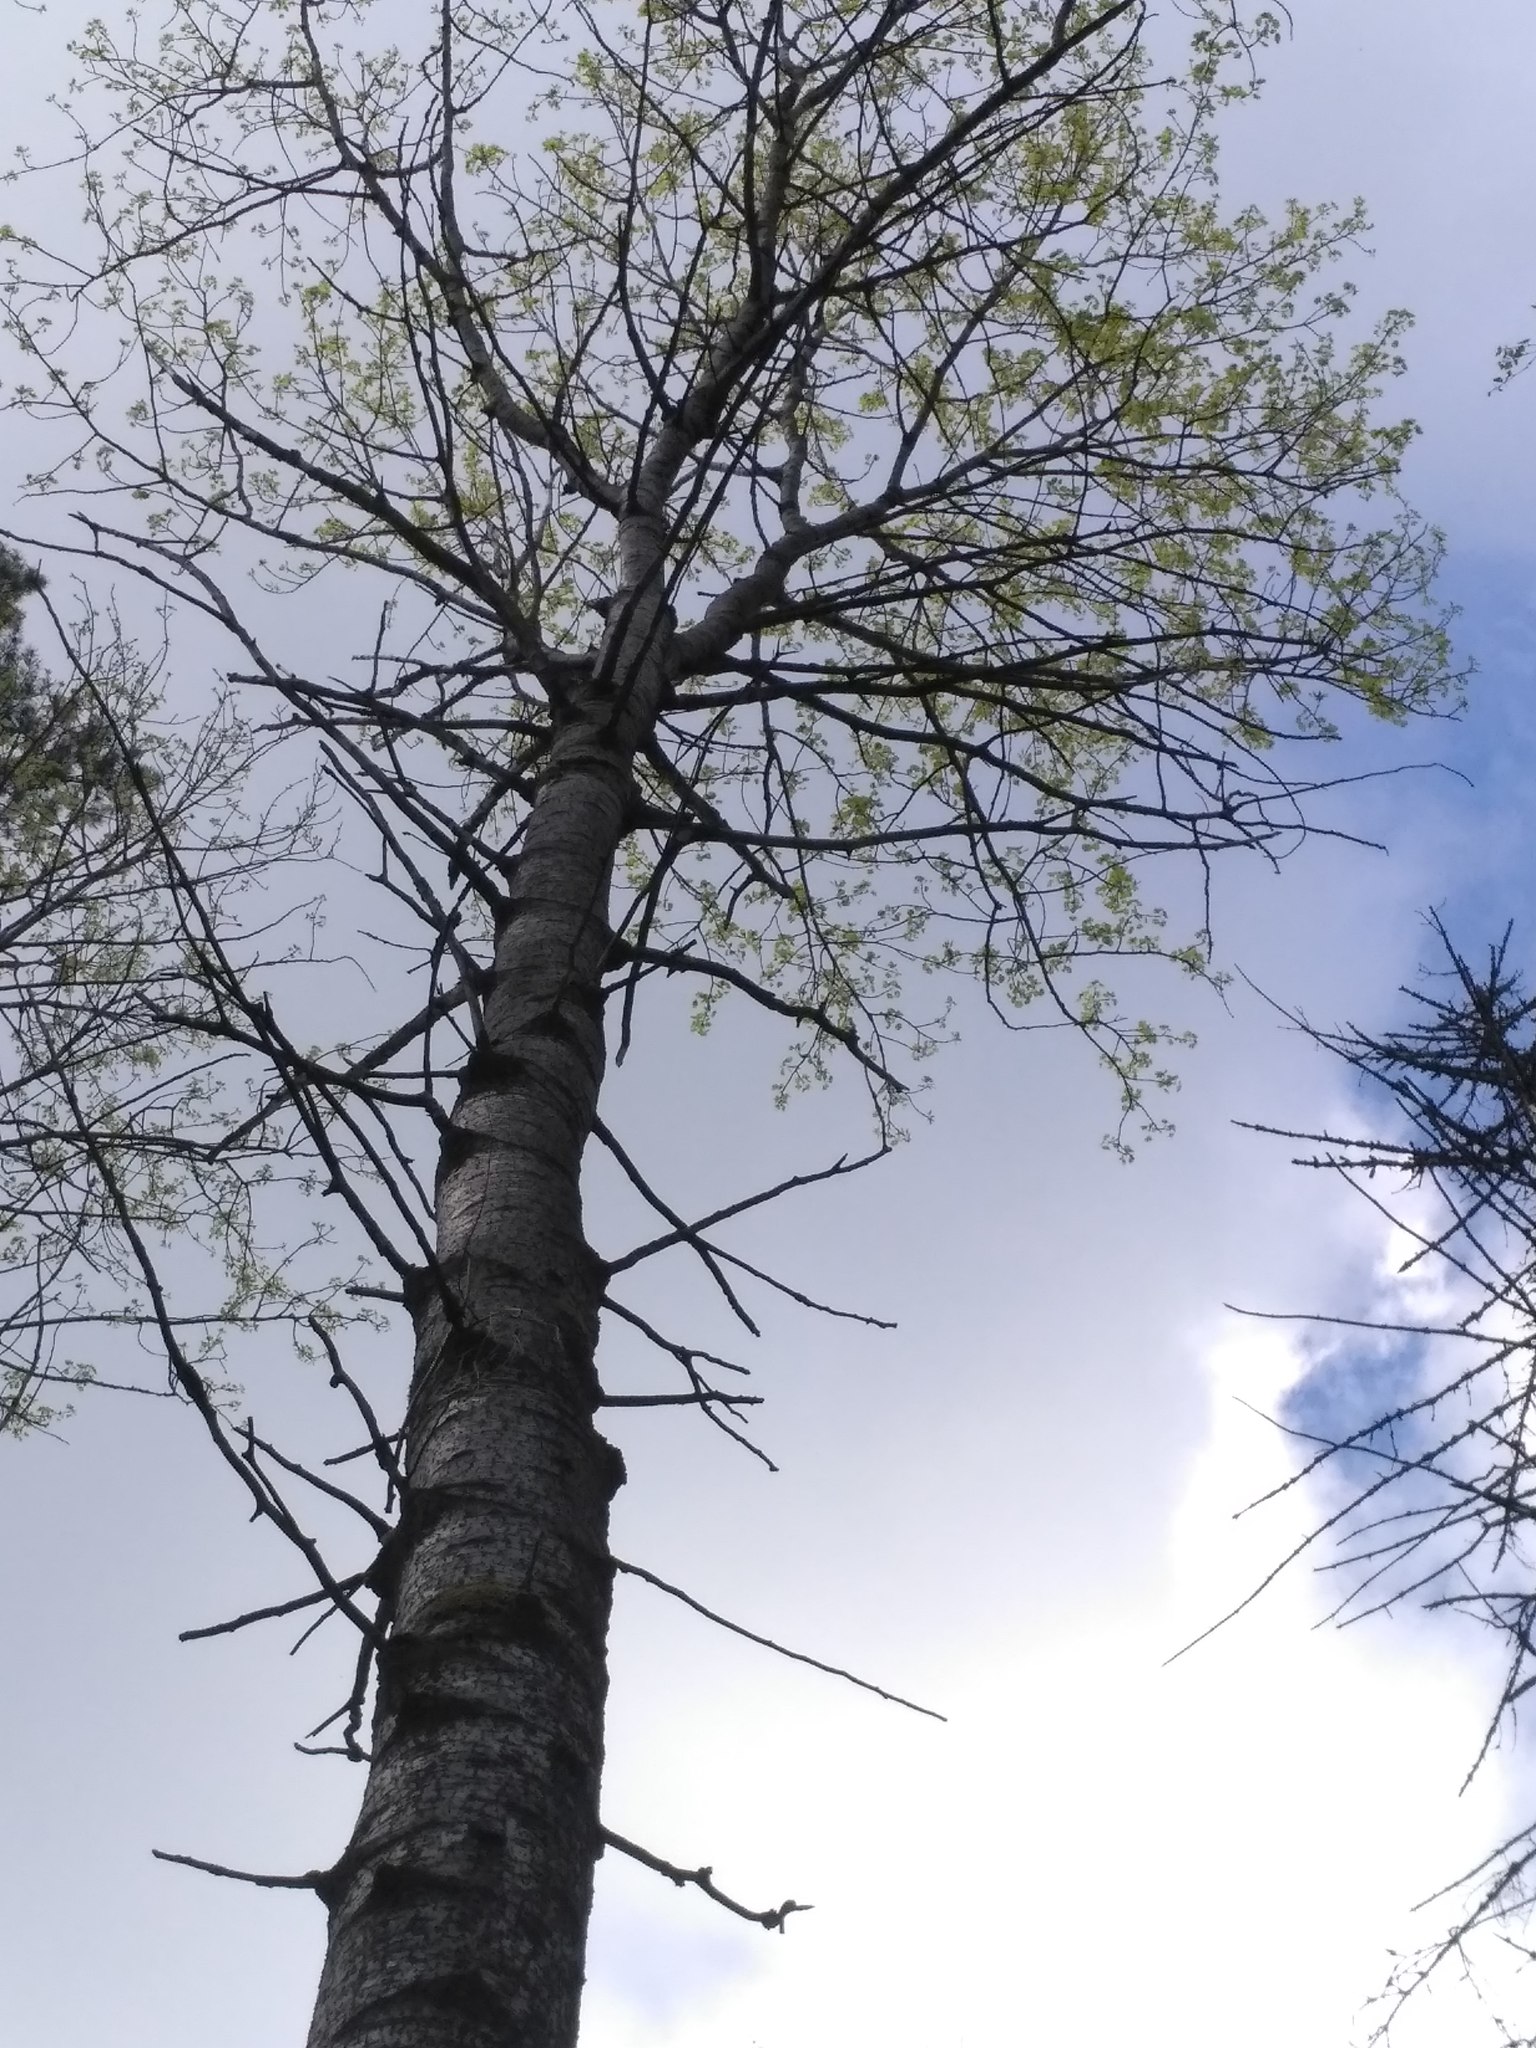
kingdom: Plantae
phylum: Tracheophyta
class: Magnoliopsida
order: Malpighiales
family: Salicaceae
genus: Populus
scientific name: Populus tremula
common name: European aspen
